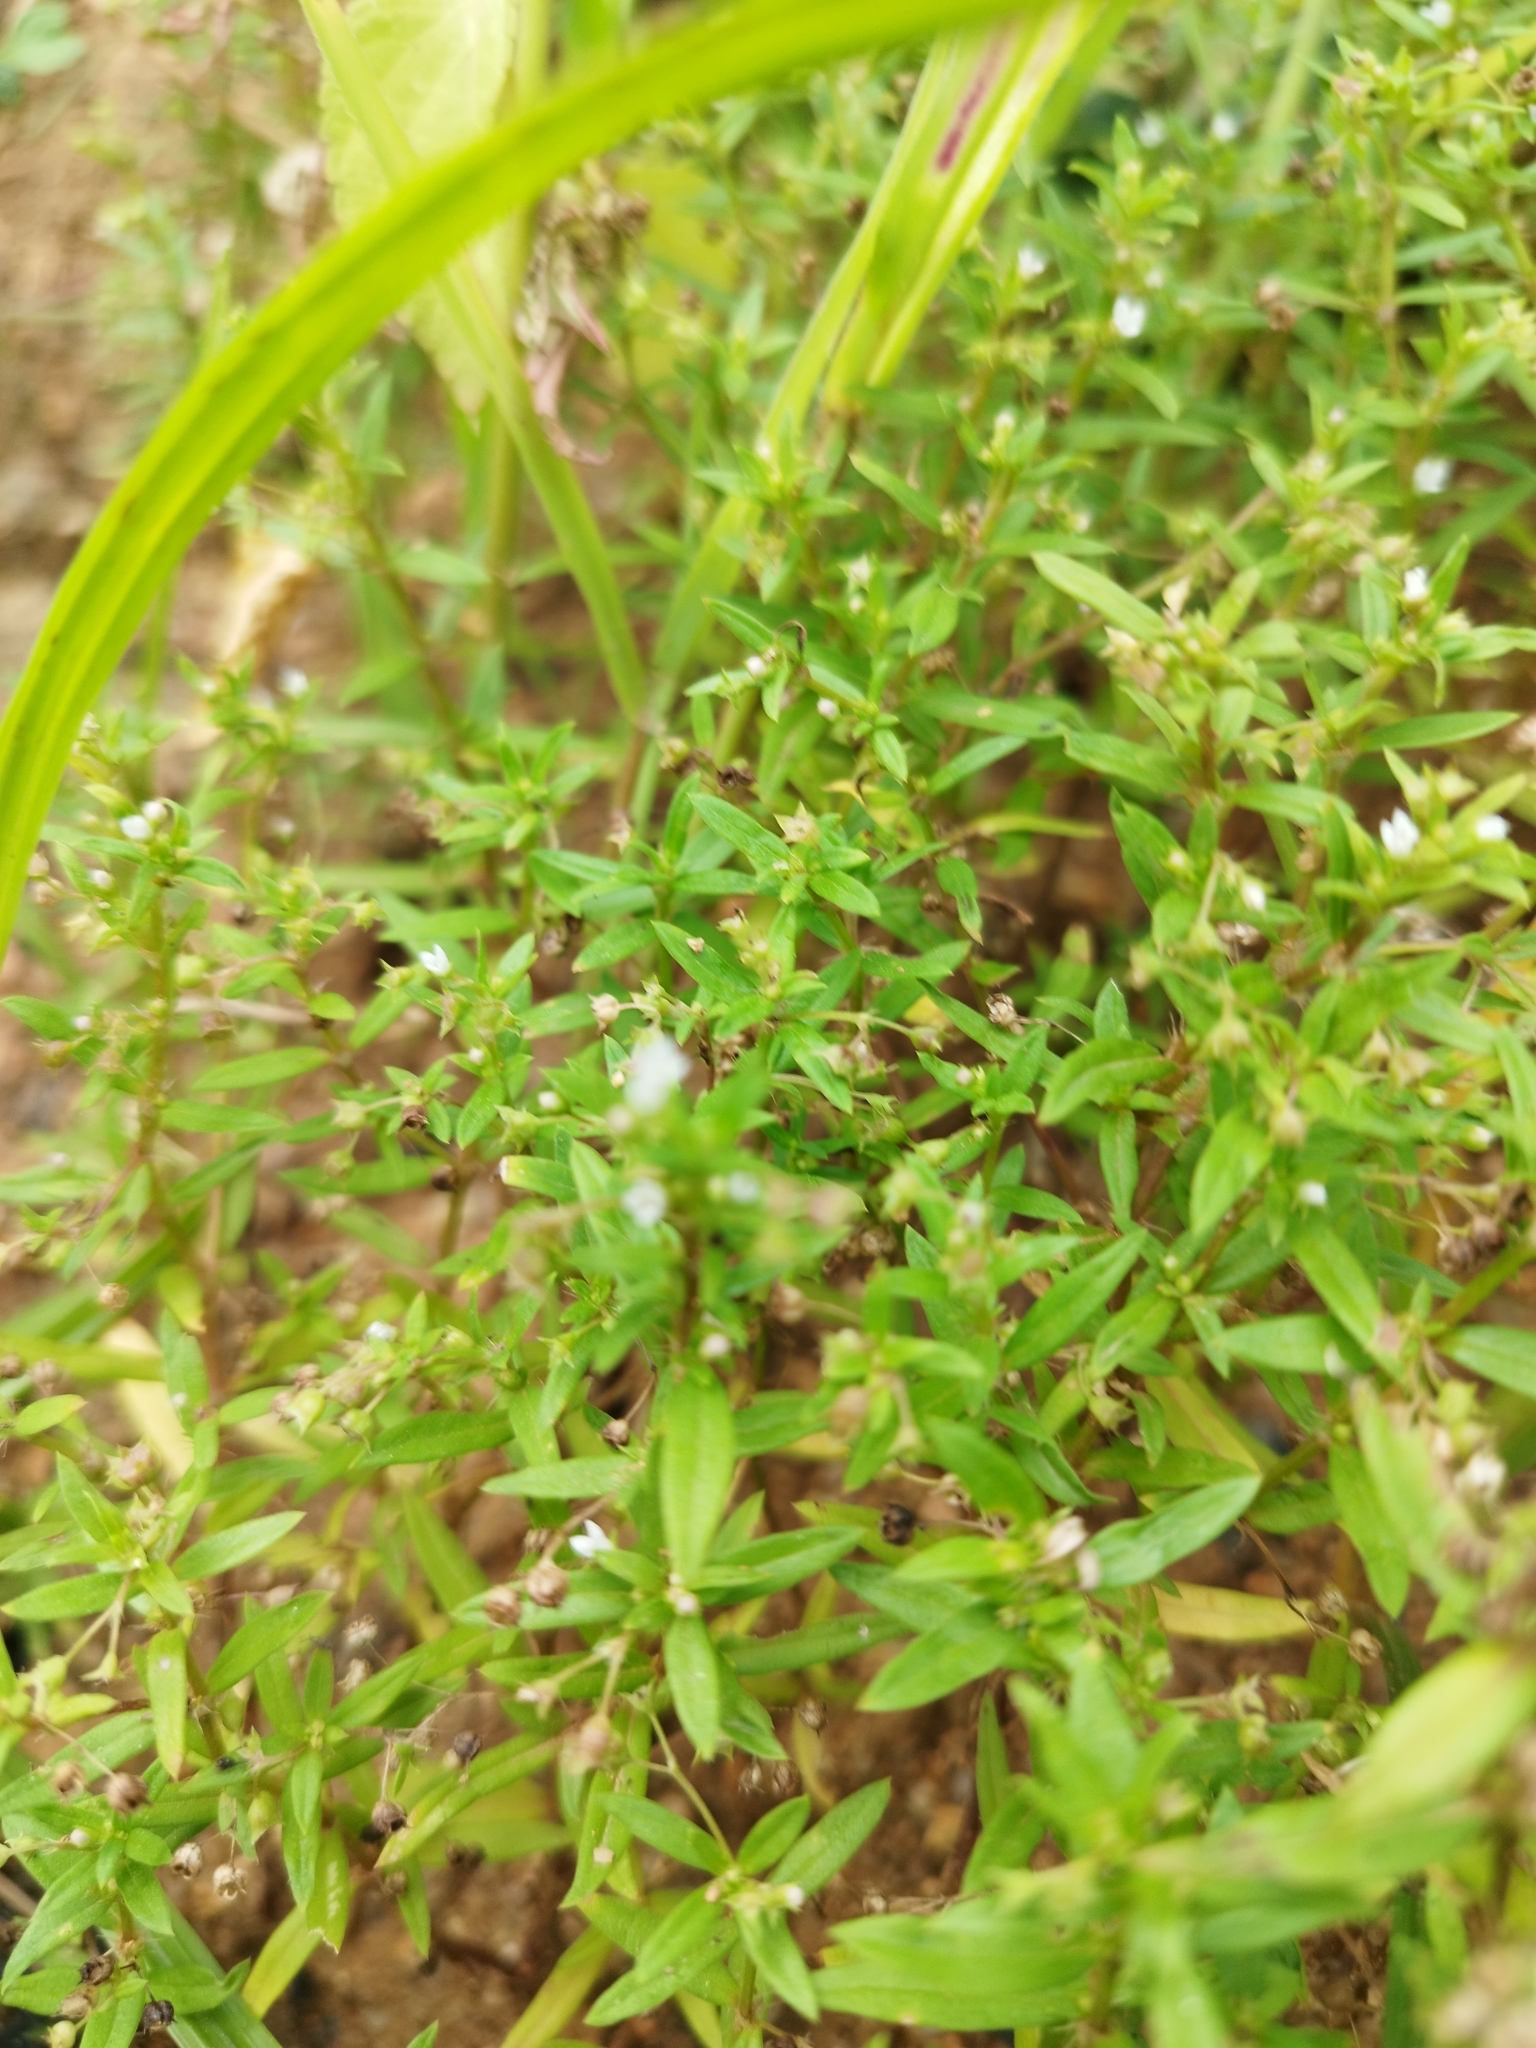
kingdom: Plantae
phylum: Tracheophyta
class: Magnoliopsida
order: Gentianales
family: Rubiaceae
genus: Oldenlandia
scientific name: Oldenlandia corymbosa
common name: Flat-top mille graines
